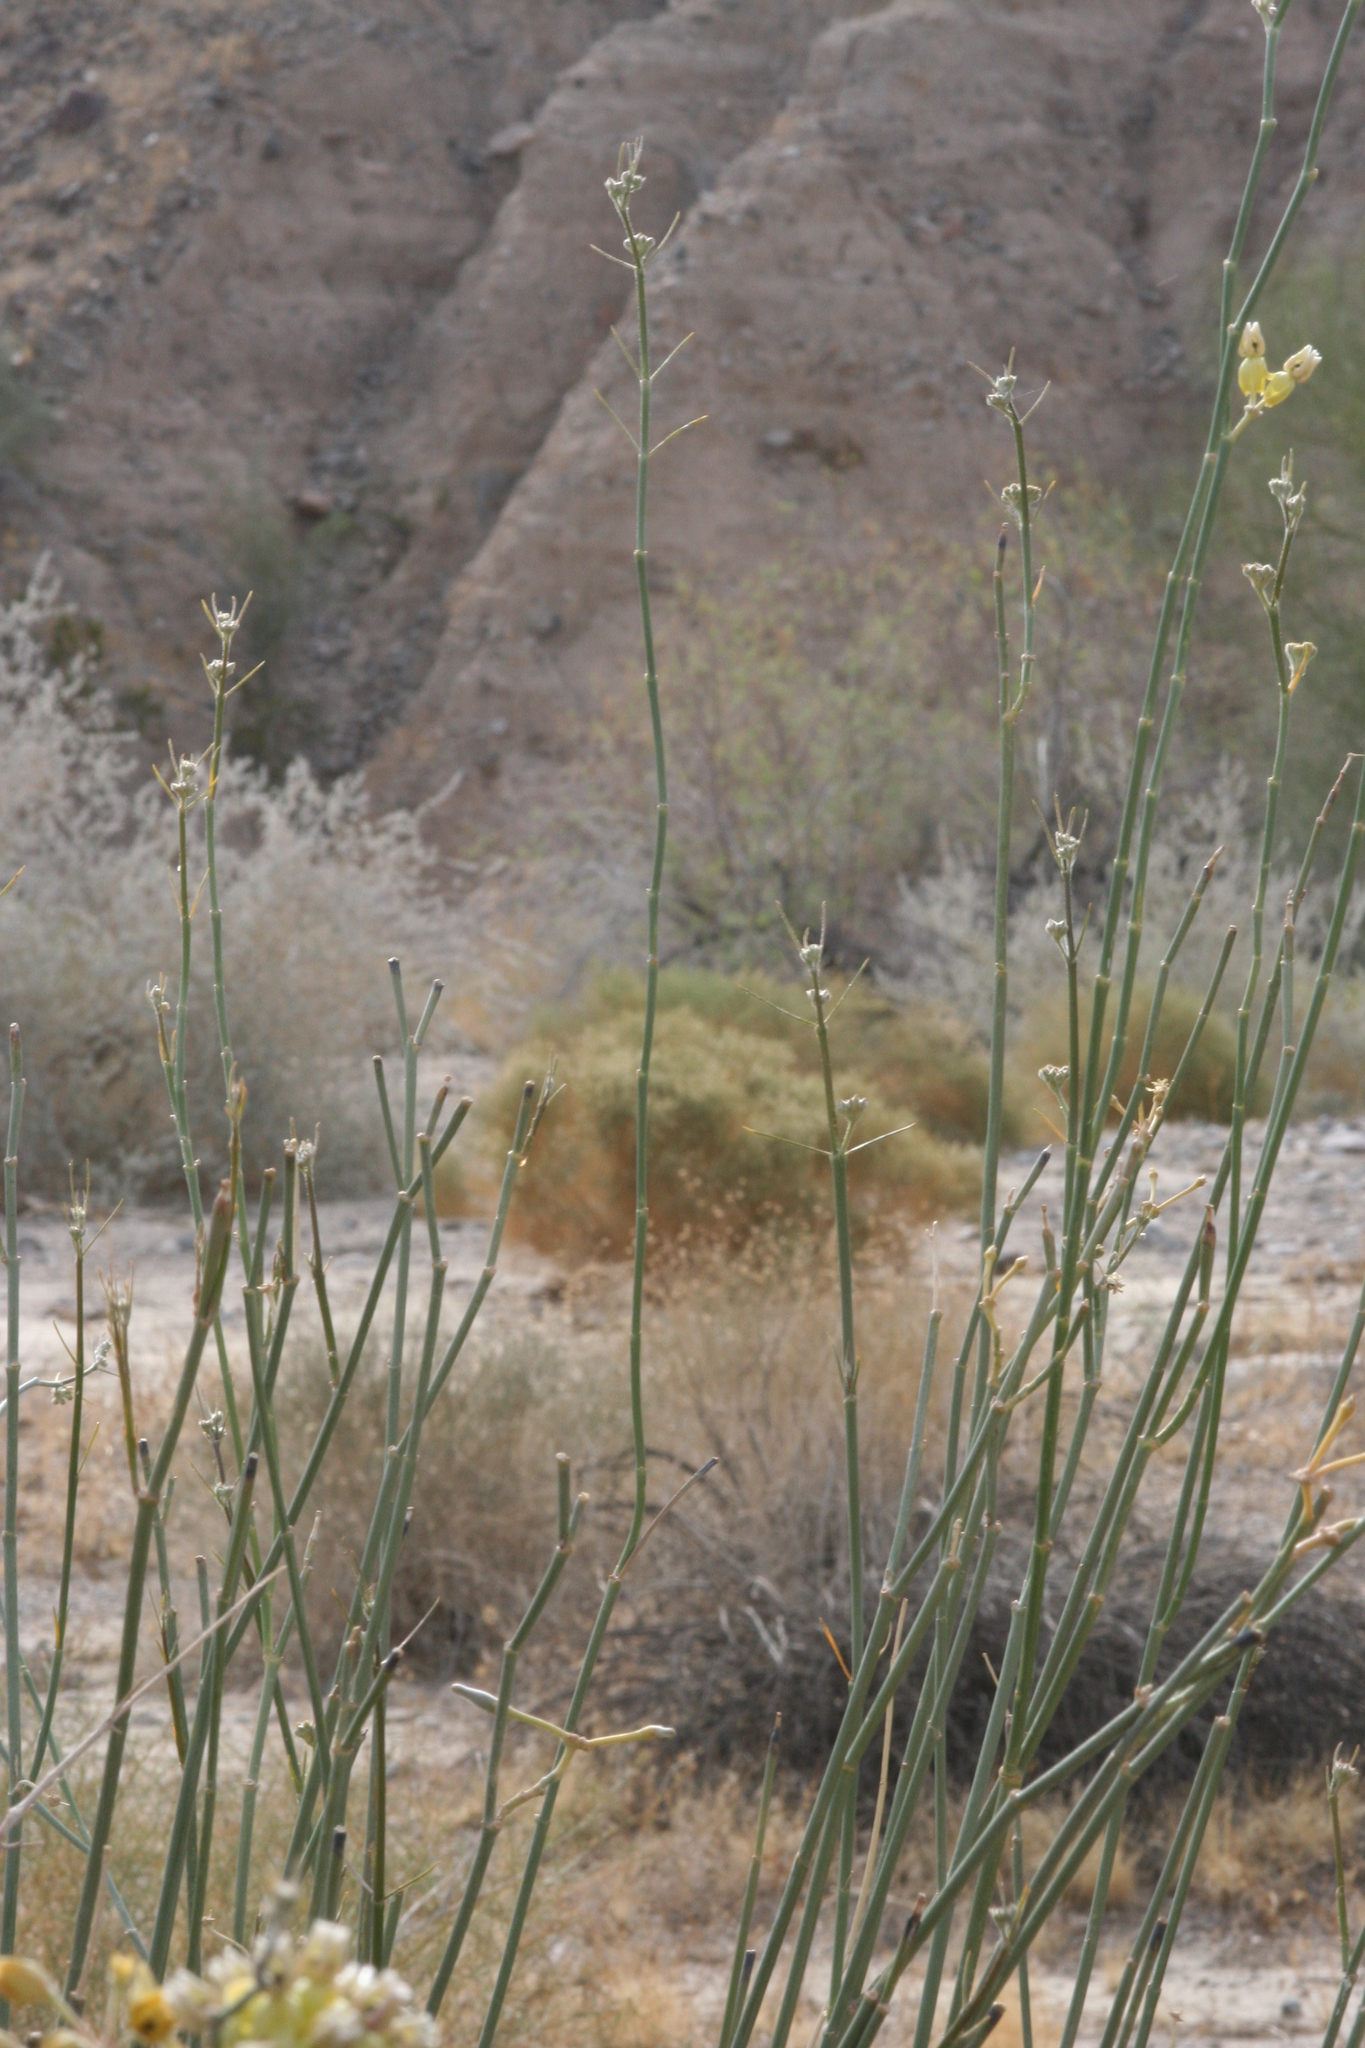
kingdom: Plantae
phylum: Tracheophyta
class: Magnoliopsida
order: Gentianales
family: Apocynaceae
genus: Asclepias
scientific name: Asclepias subulata
